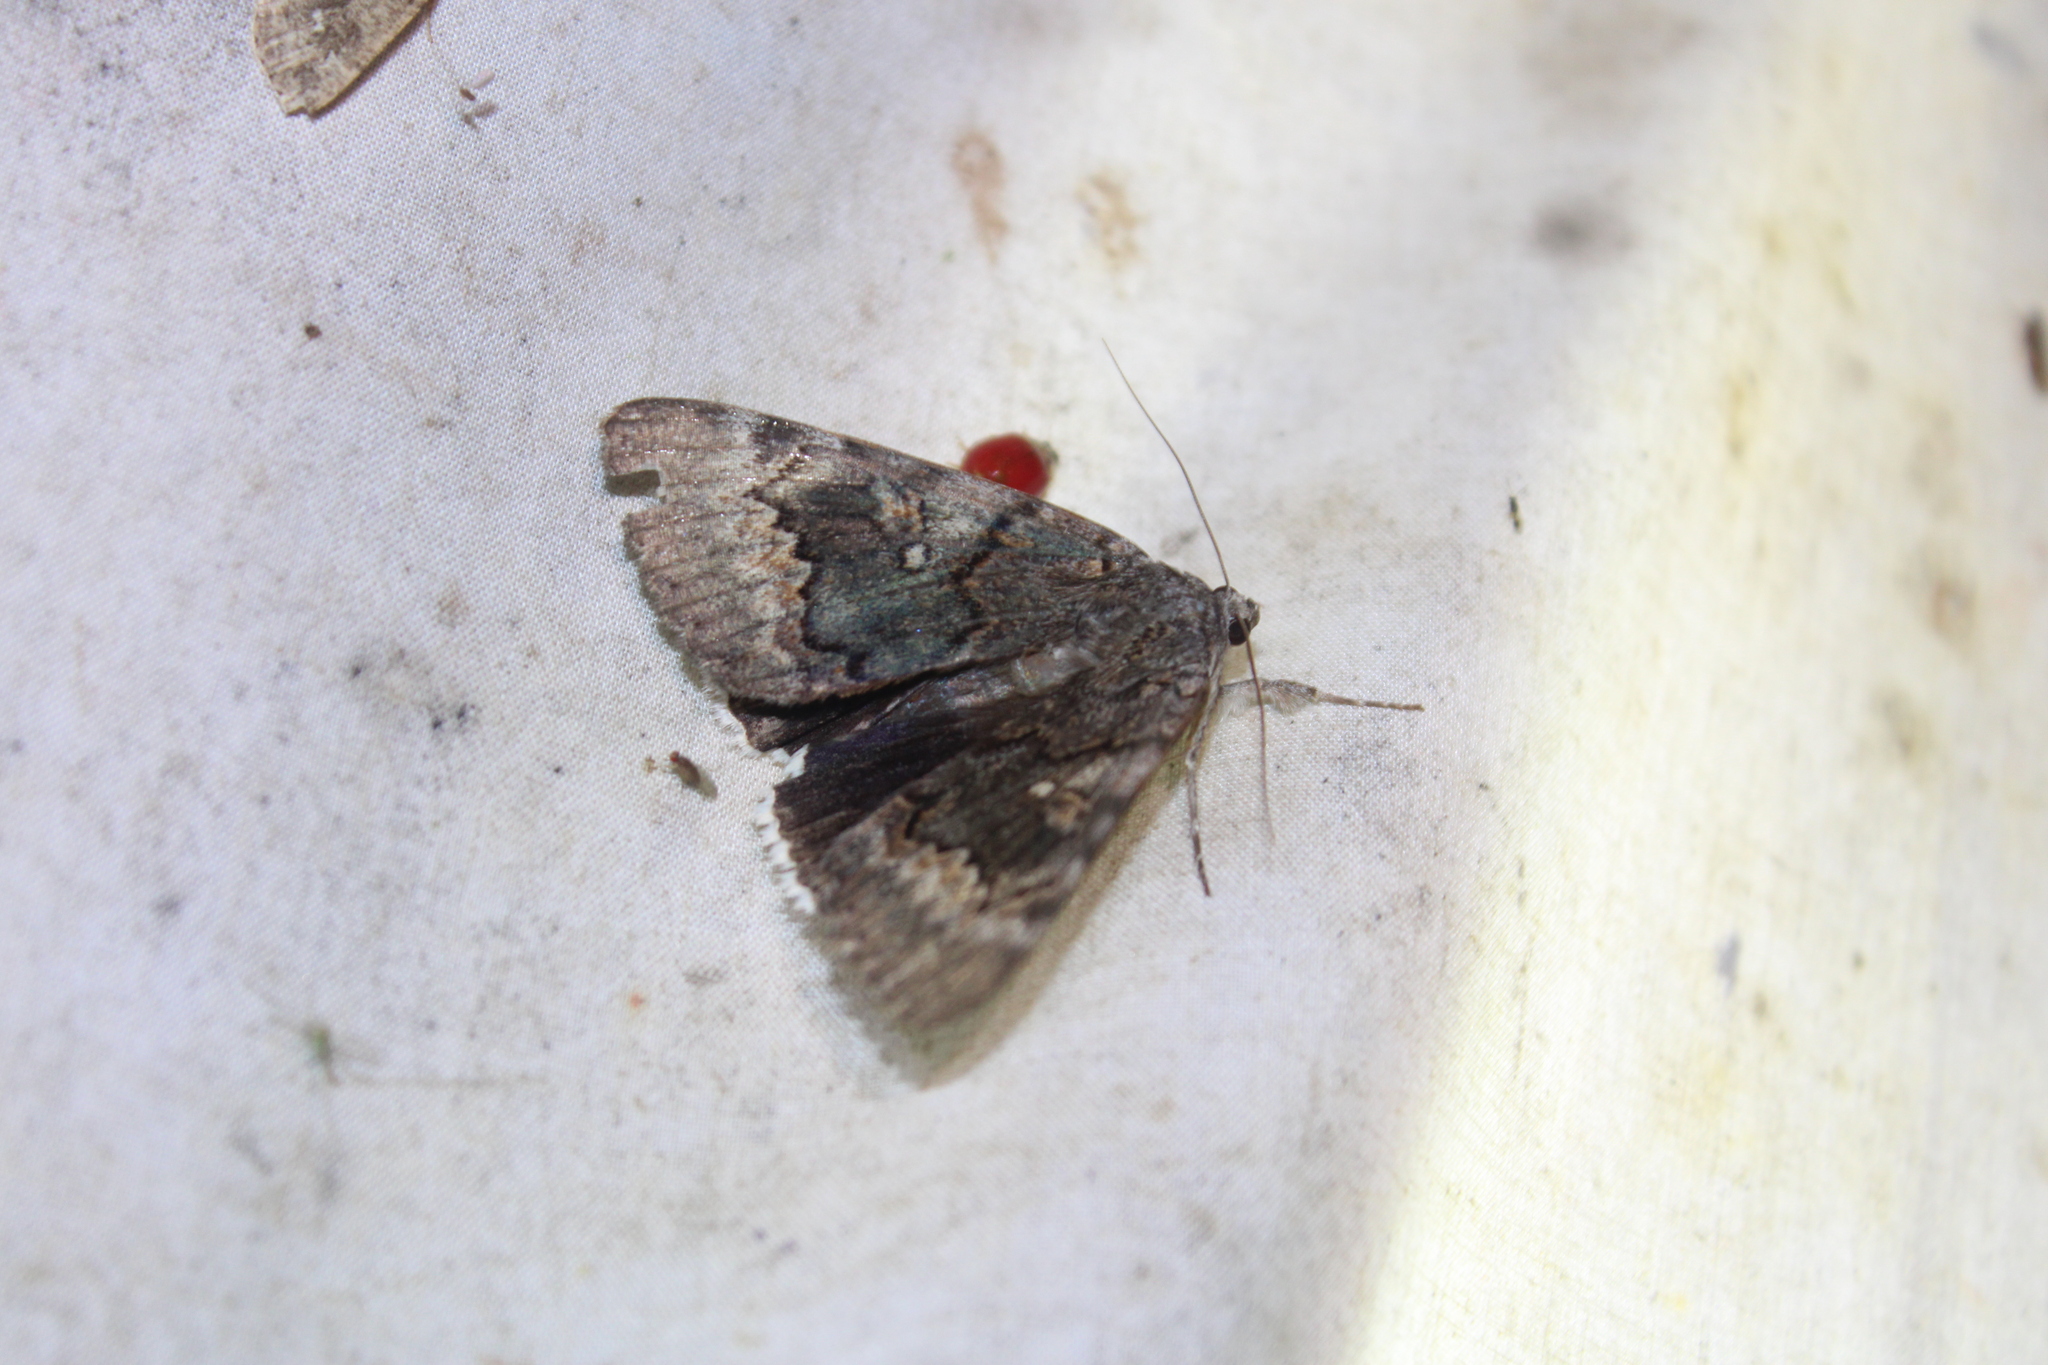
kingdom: Animalia
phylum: Arthropoda
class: Insecta
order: Lepidoptera
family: Erebidae
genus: Catocala
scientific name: Catocala epione
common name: Epione underwing
